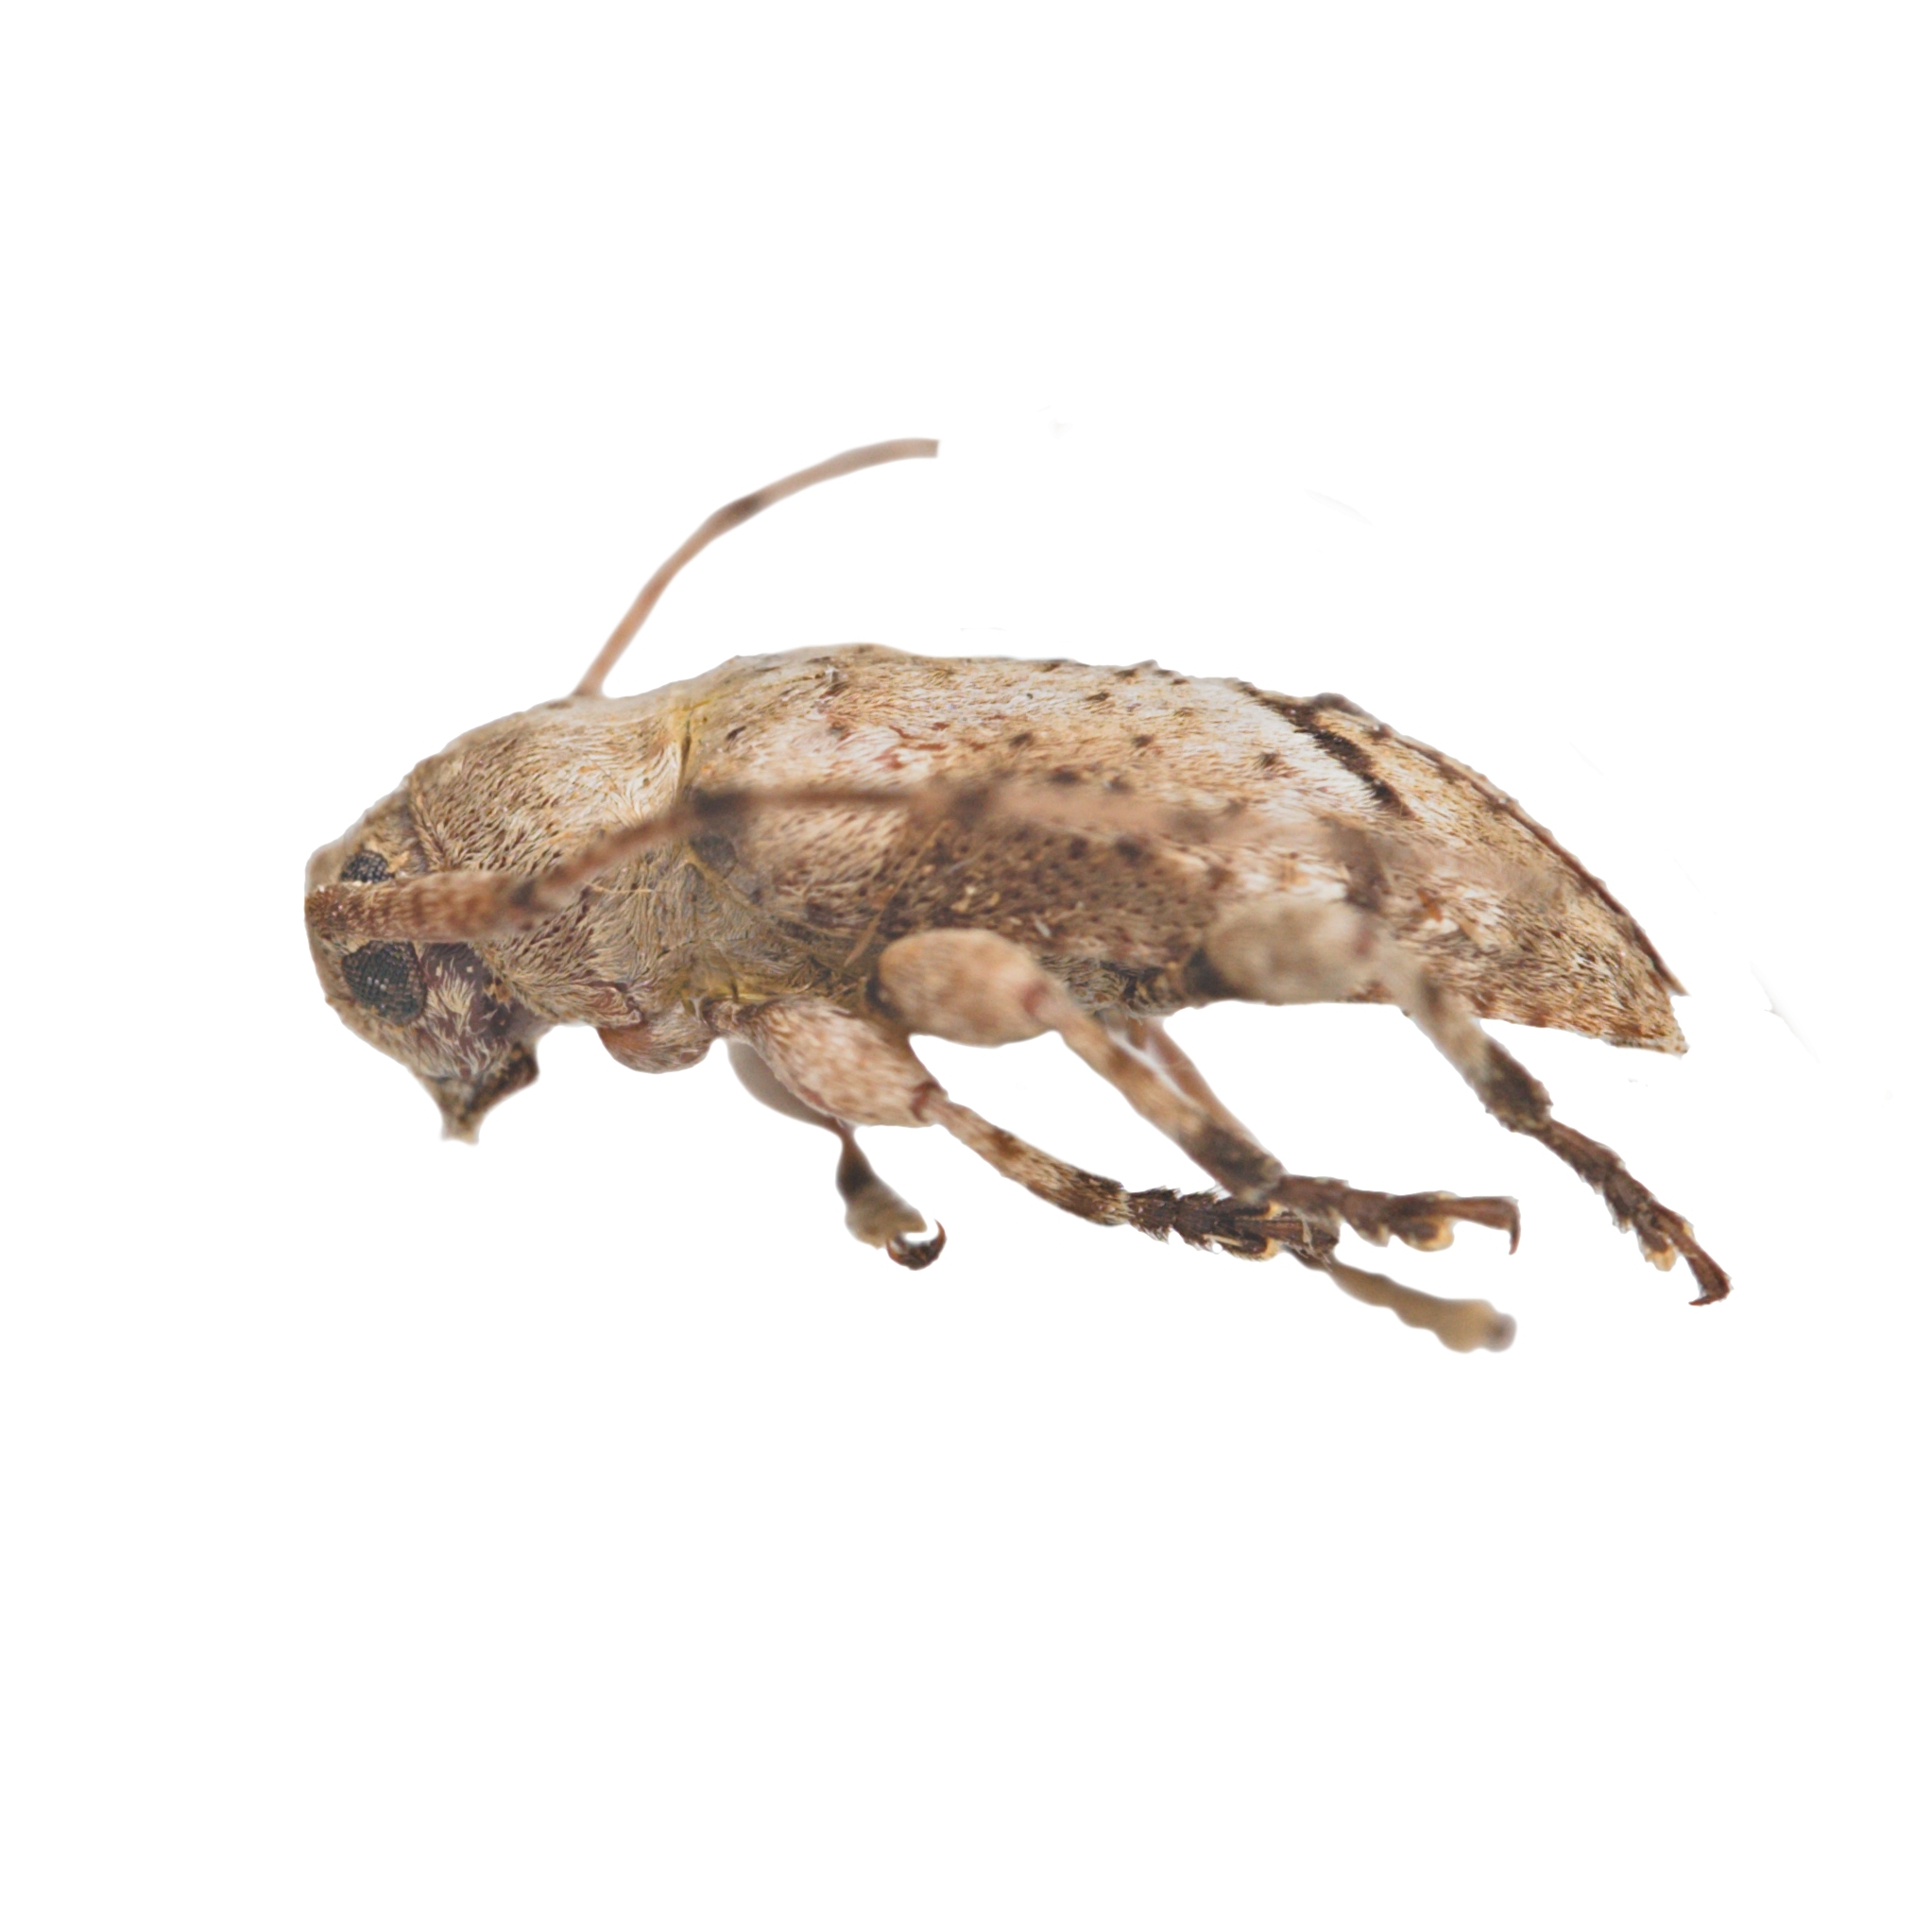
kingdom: Animalia
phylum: Arthropoda
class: Insecta
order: Coleoptera
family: Cerambycidae
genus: Sternidius
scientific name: Sternidius mimeticus
